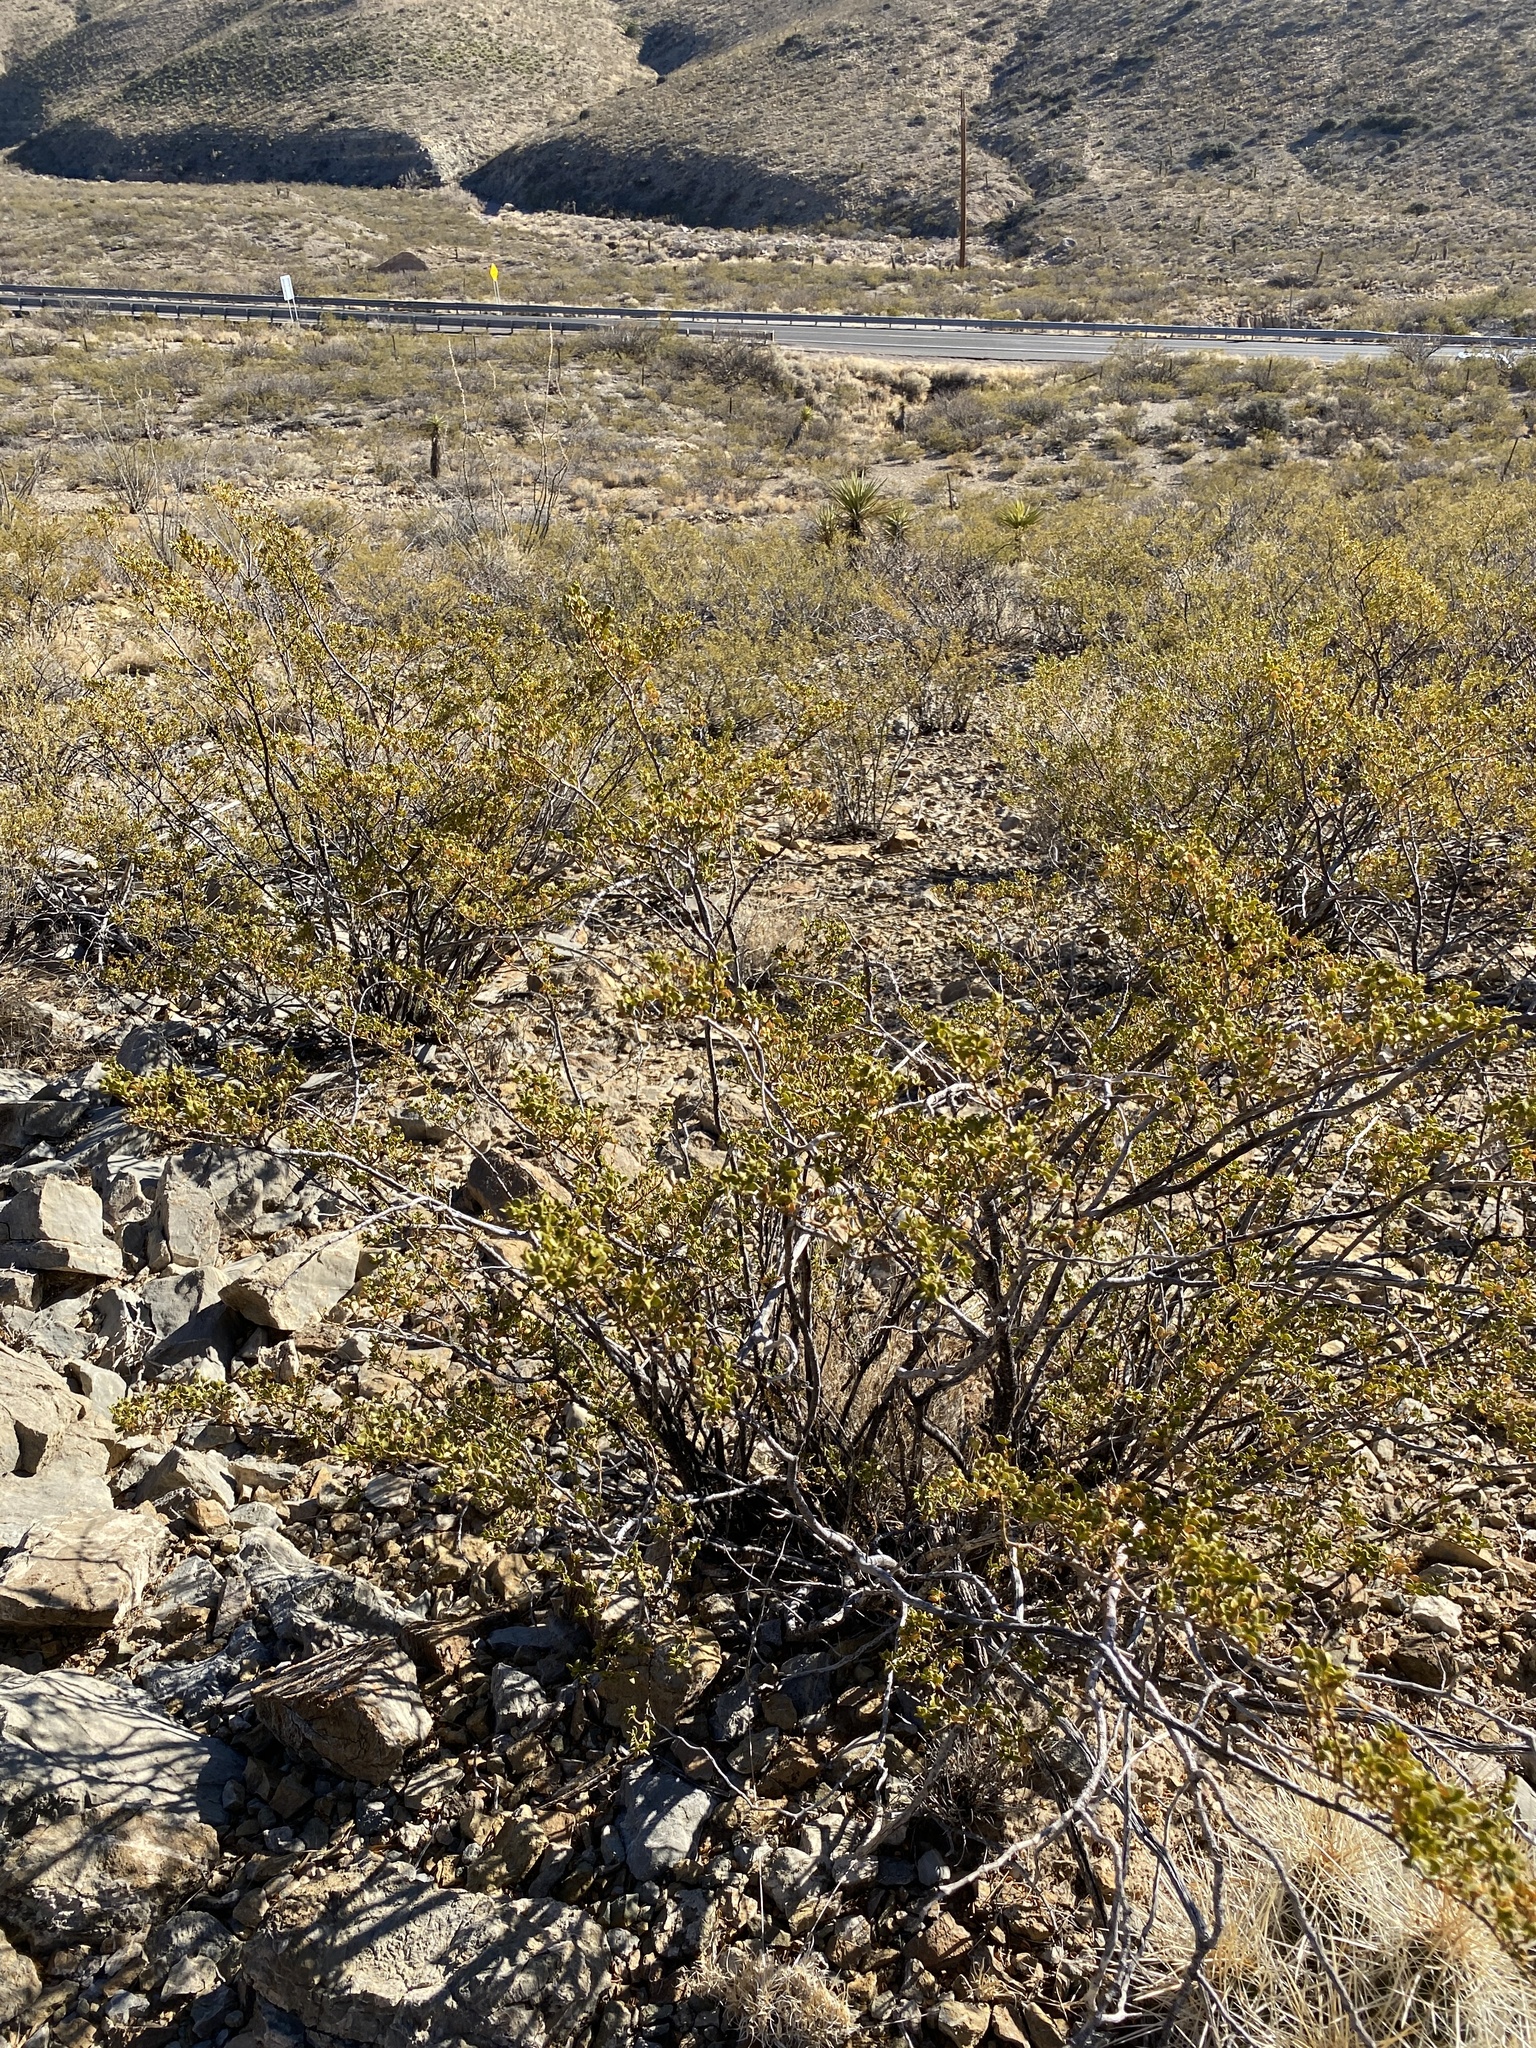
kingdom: Plantae
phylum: Tracheophyta
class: Magnoliopsida
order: Zygophyllales
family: Zygophyllaceae
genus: Larrea
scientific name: Larrea tridentata
